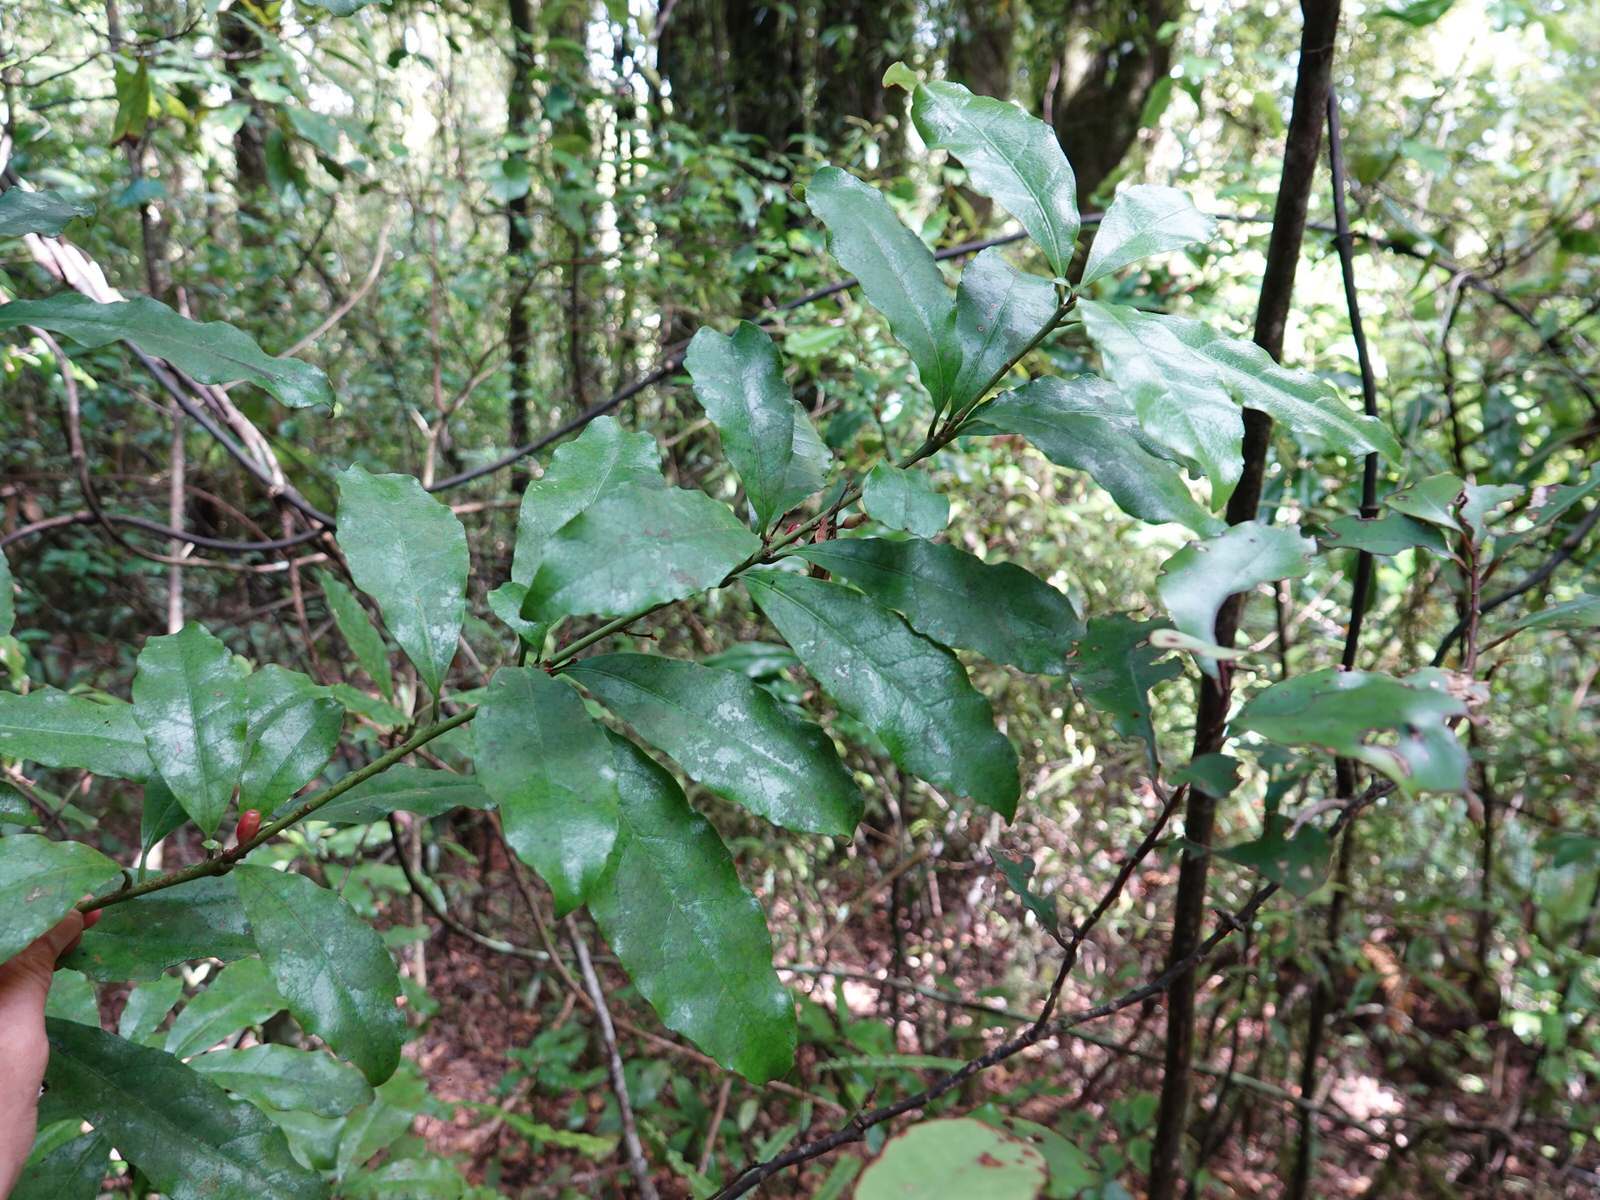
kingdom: Plantae
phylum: Tracheophyta
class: Magnoliopsida
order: Asterales
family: Alseuosmiaceae
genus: Alseuosmia
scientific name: Alseuosmia macrophylla
